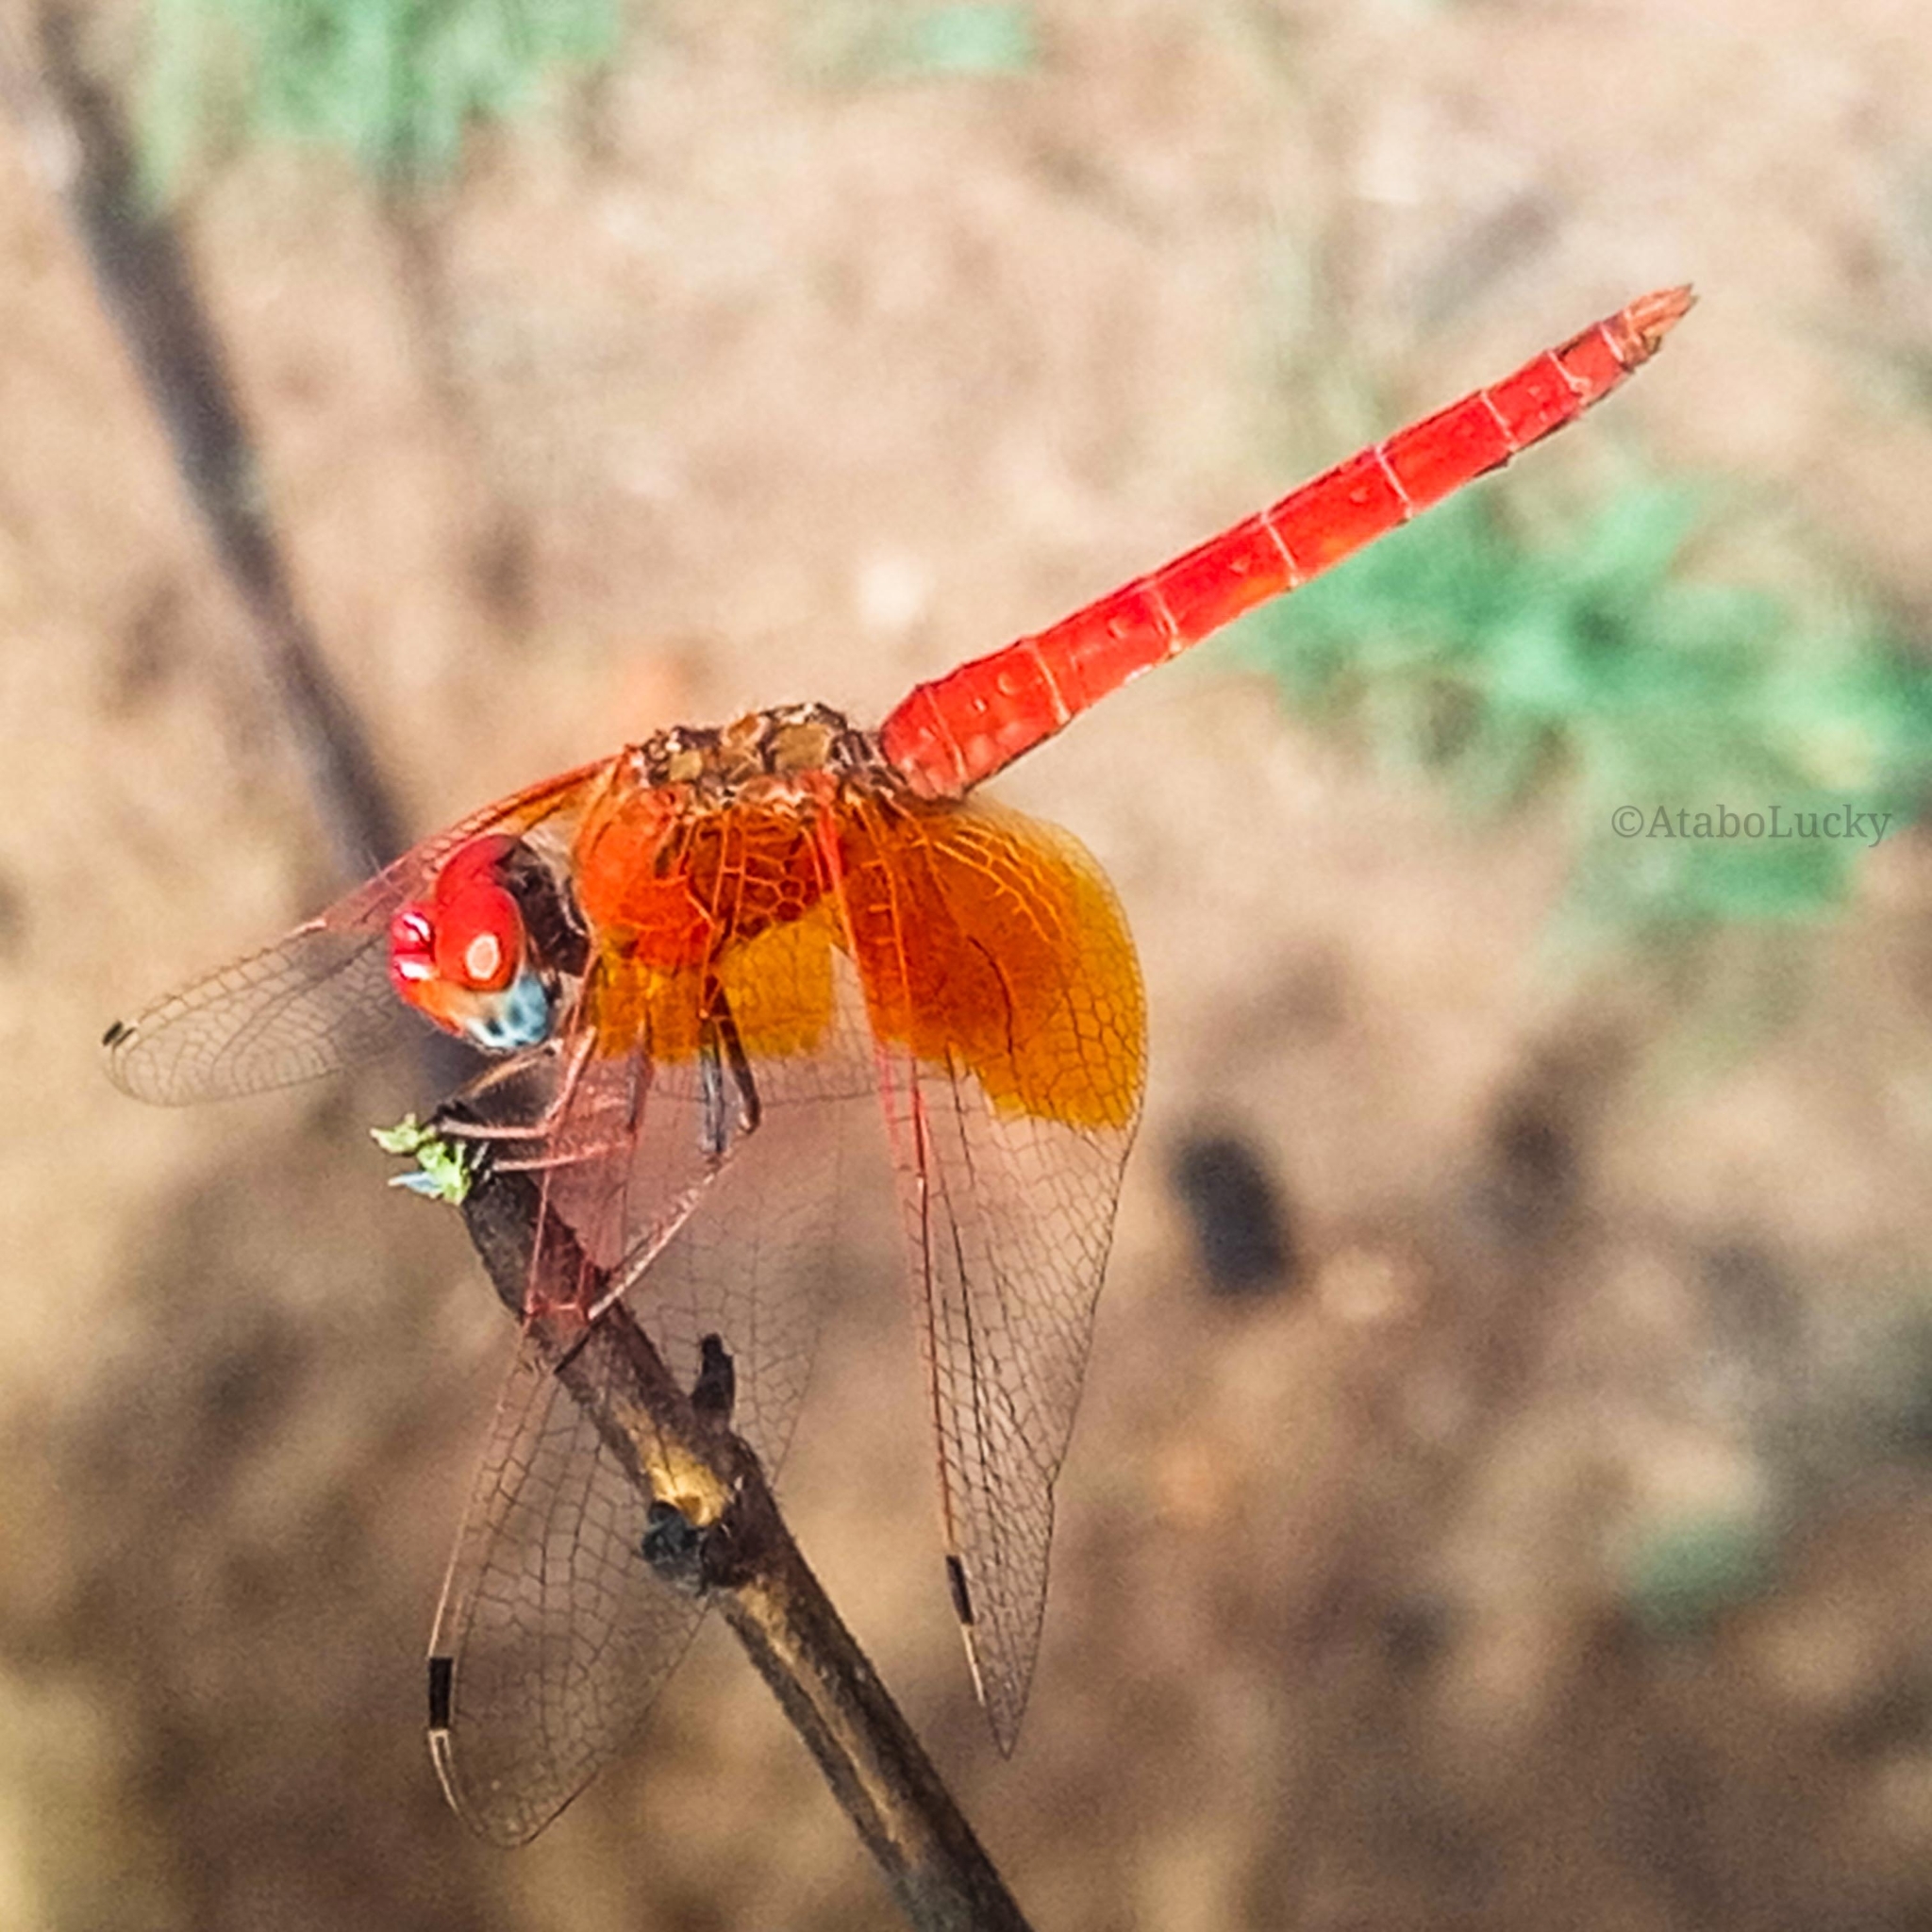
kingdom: Animalia
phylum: Arthropoda
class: Insecta
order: Odonata
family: Libellulidae
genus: Trithemis
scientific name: Trithemis kirbyi
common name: Kirby's dropwing
